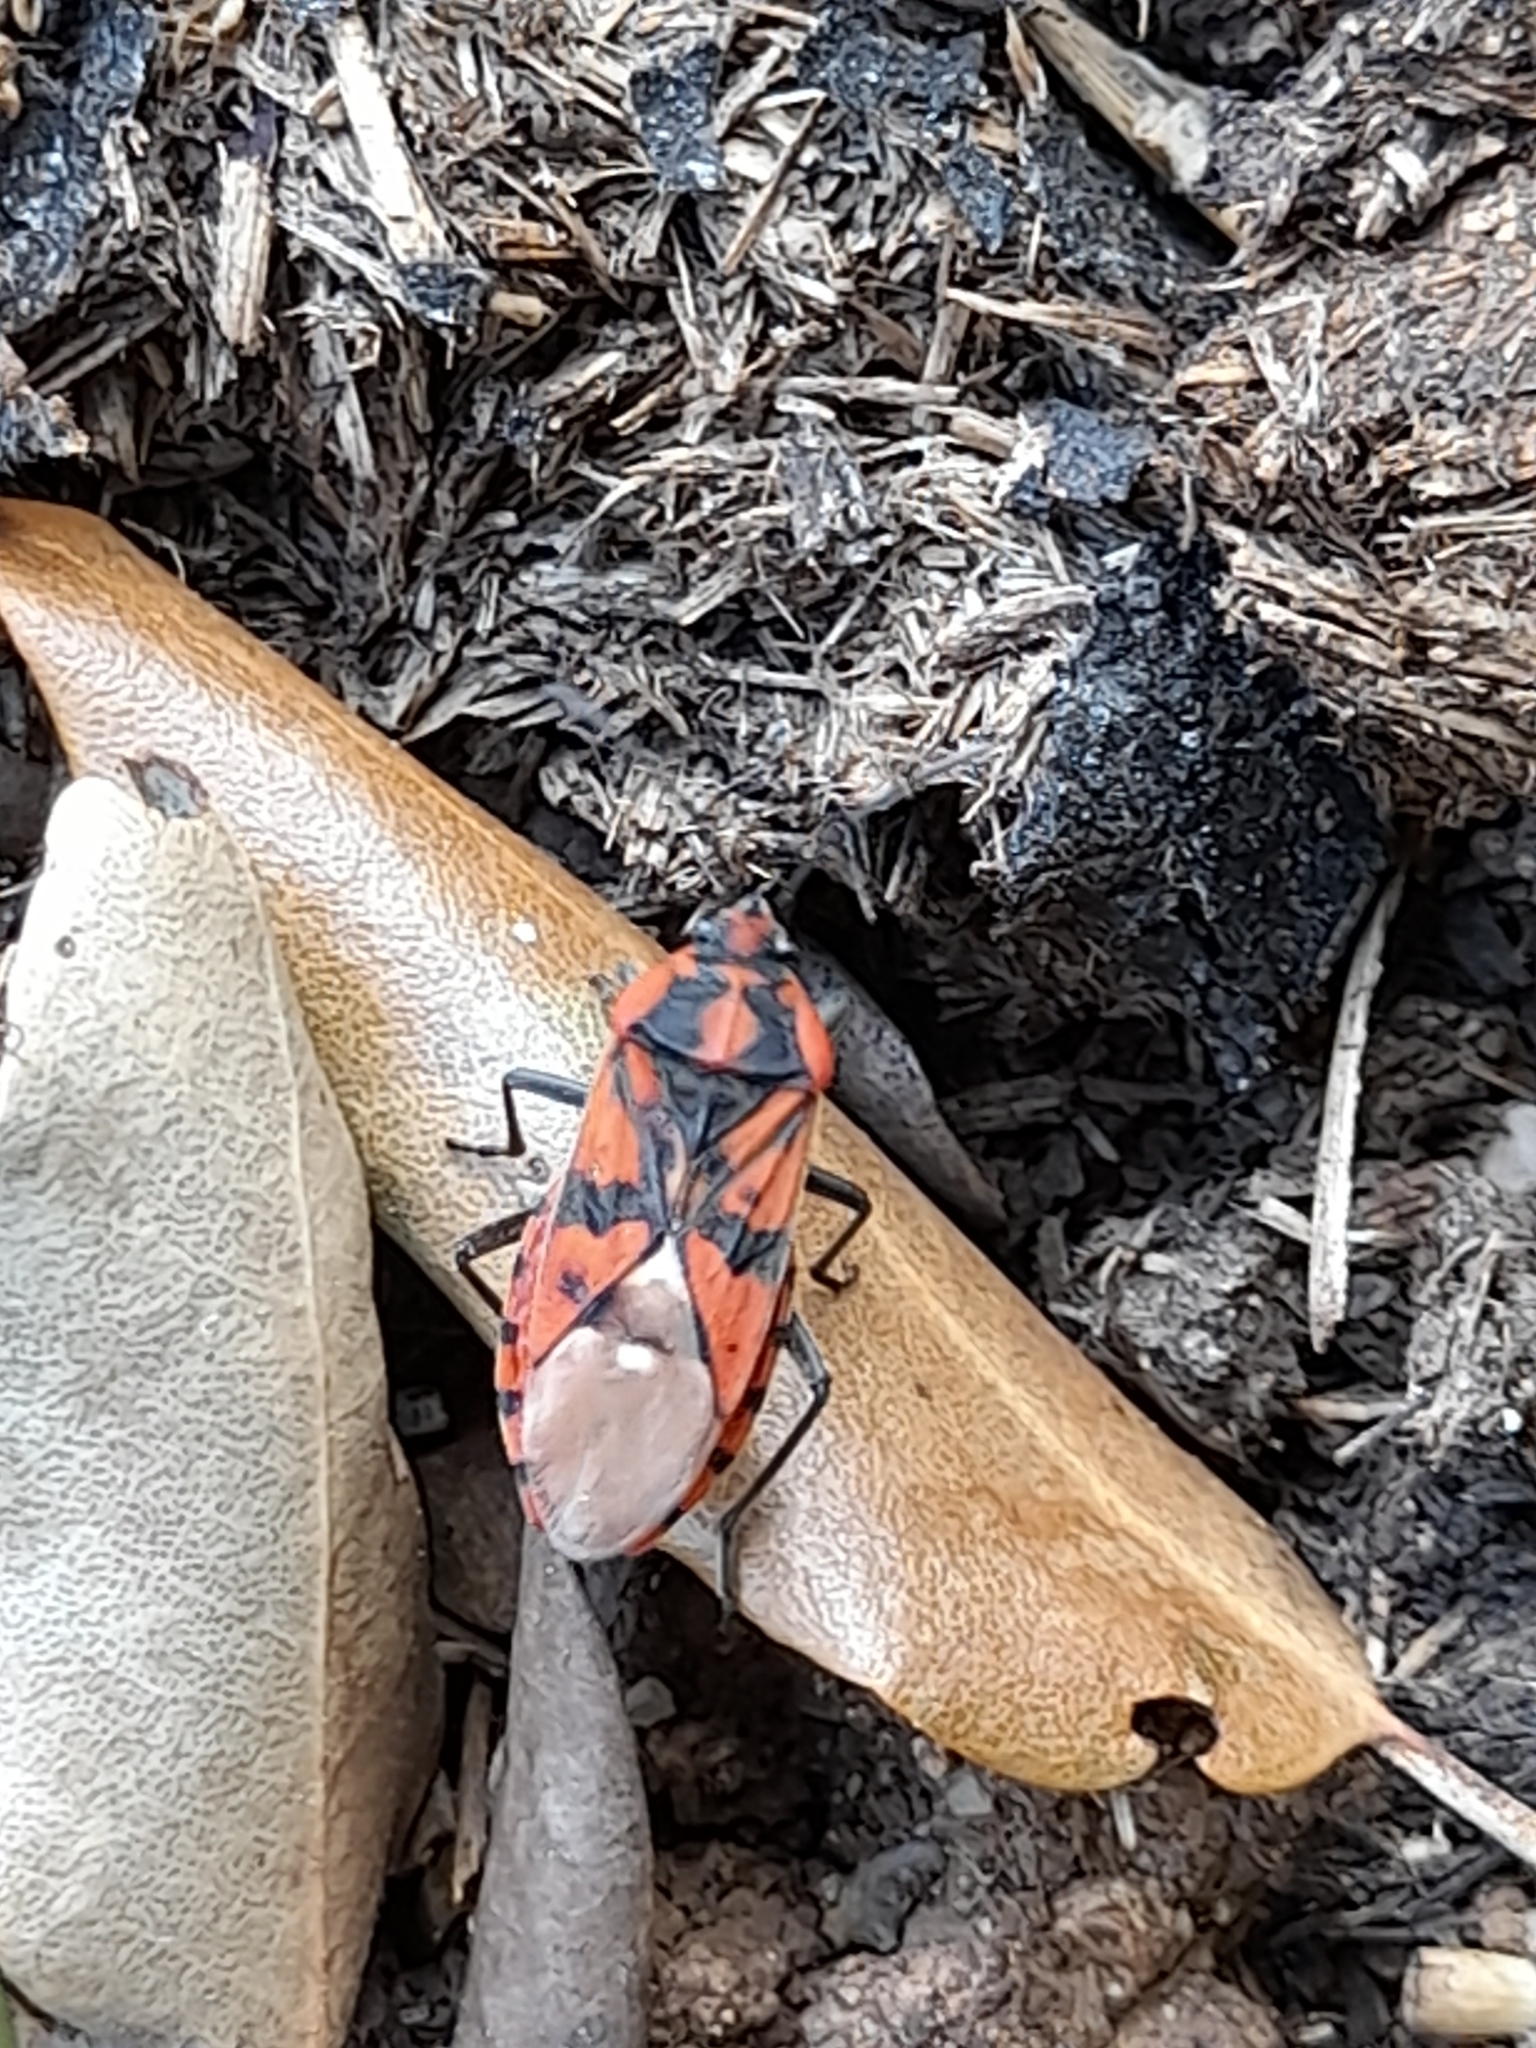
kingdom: Animalia
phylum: Arthropoda
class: Insecta
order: Hemiptera
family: Lygaeidae
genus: Spilostethus
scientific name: Spilostethus pandurus
